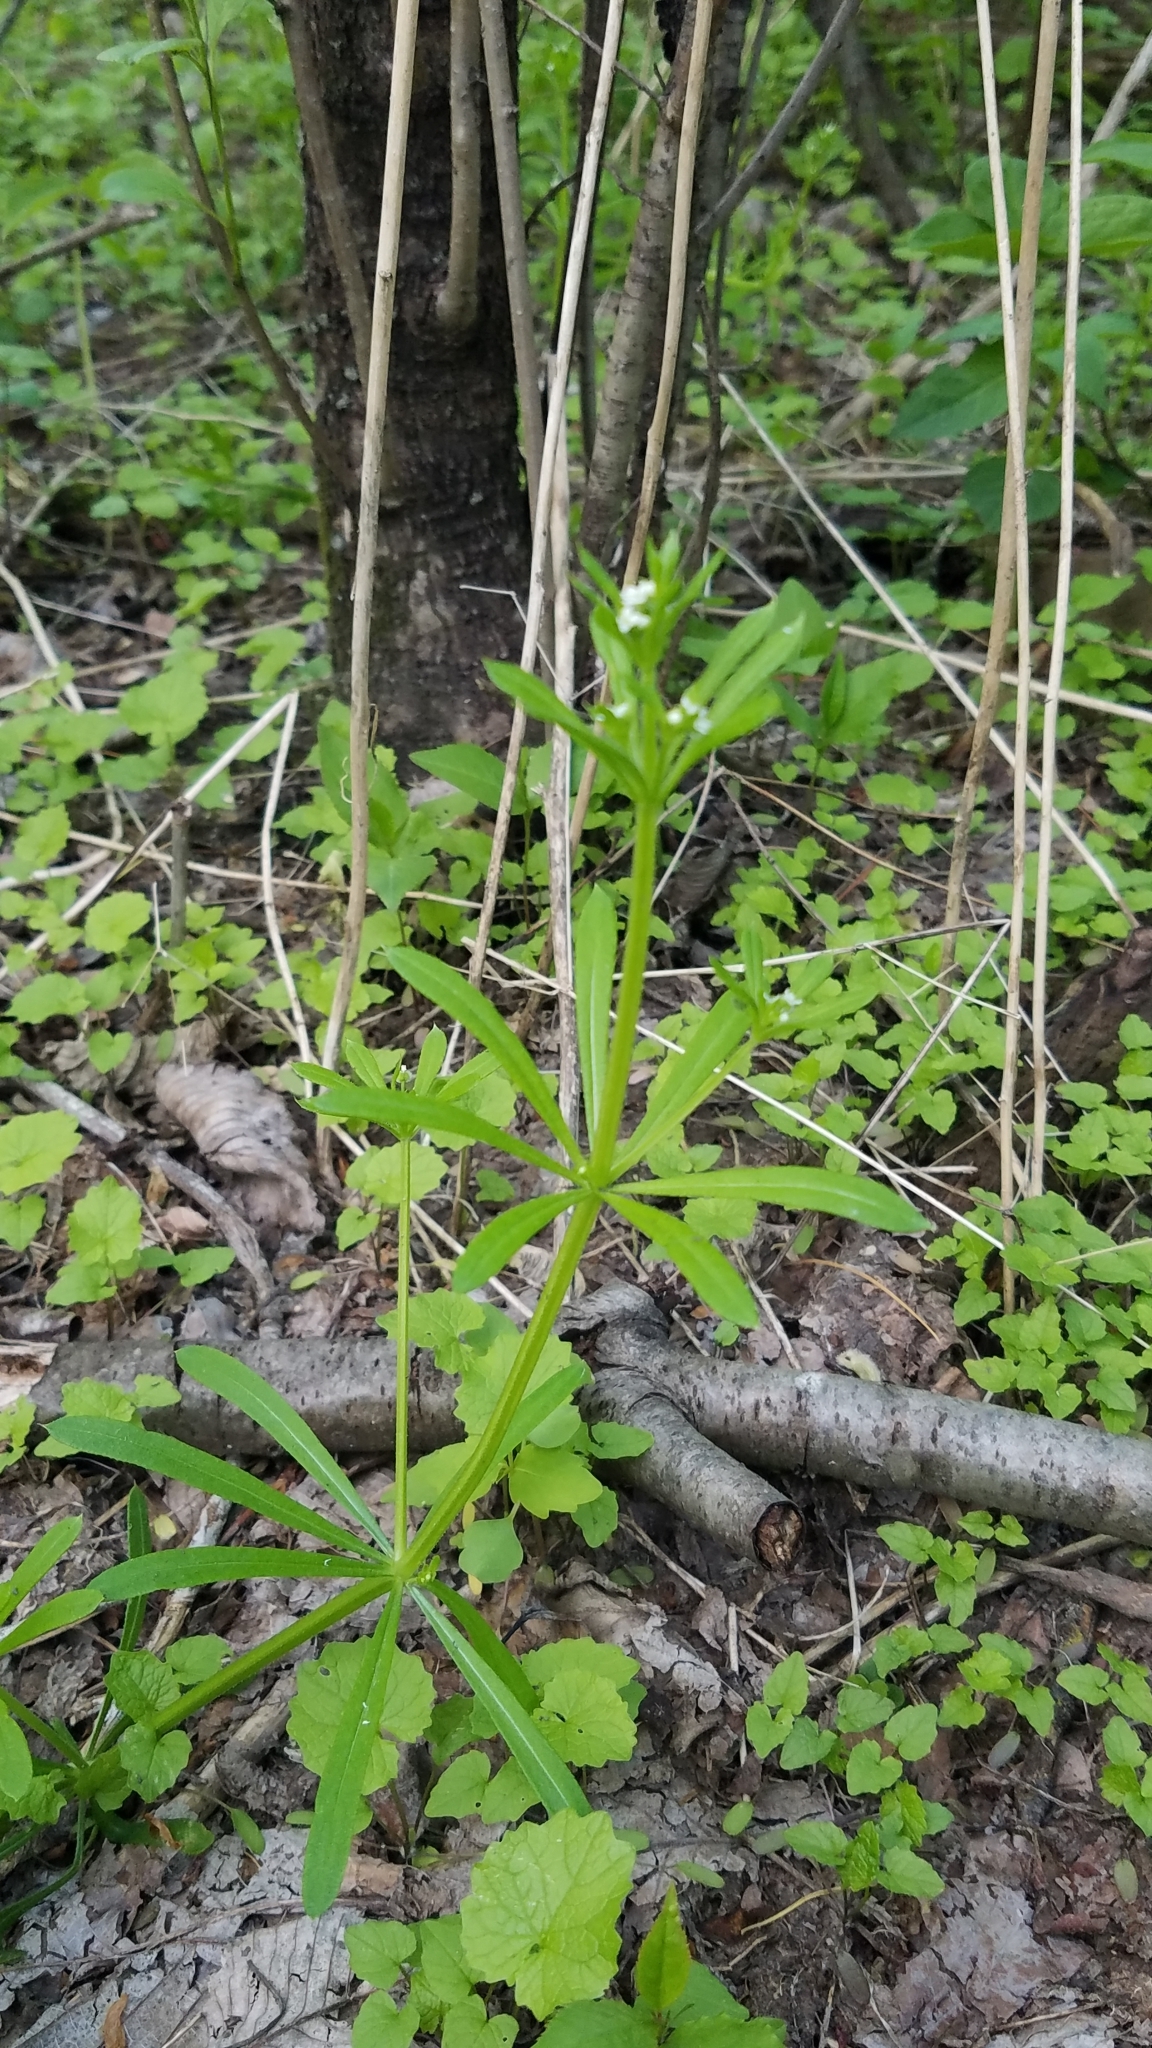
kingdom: Plantae
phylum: Tracheophyta
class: Magnoliopsida
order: Gentianales
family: Rubiaceae
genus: Galium
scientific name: Galium aparine
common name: Cleavers
